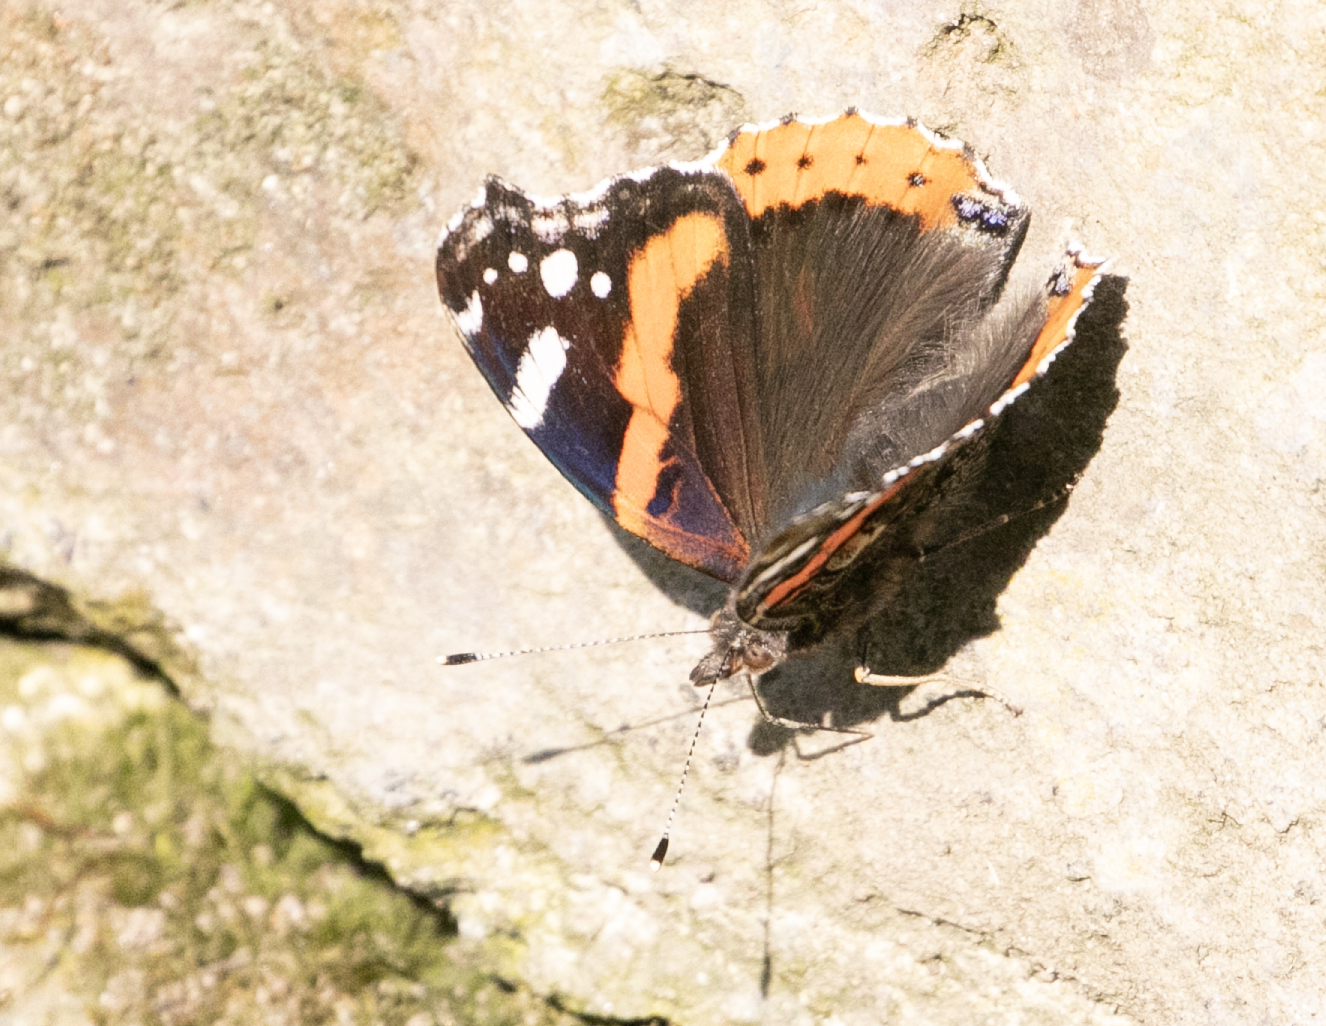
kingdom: Animalia
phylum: Arthropoda
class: Insecta
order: Lepidoptera
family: Nymphalidae
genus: Vanessa
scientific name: Vanessa atalanta
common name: Red admiral
